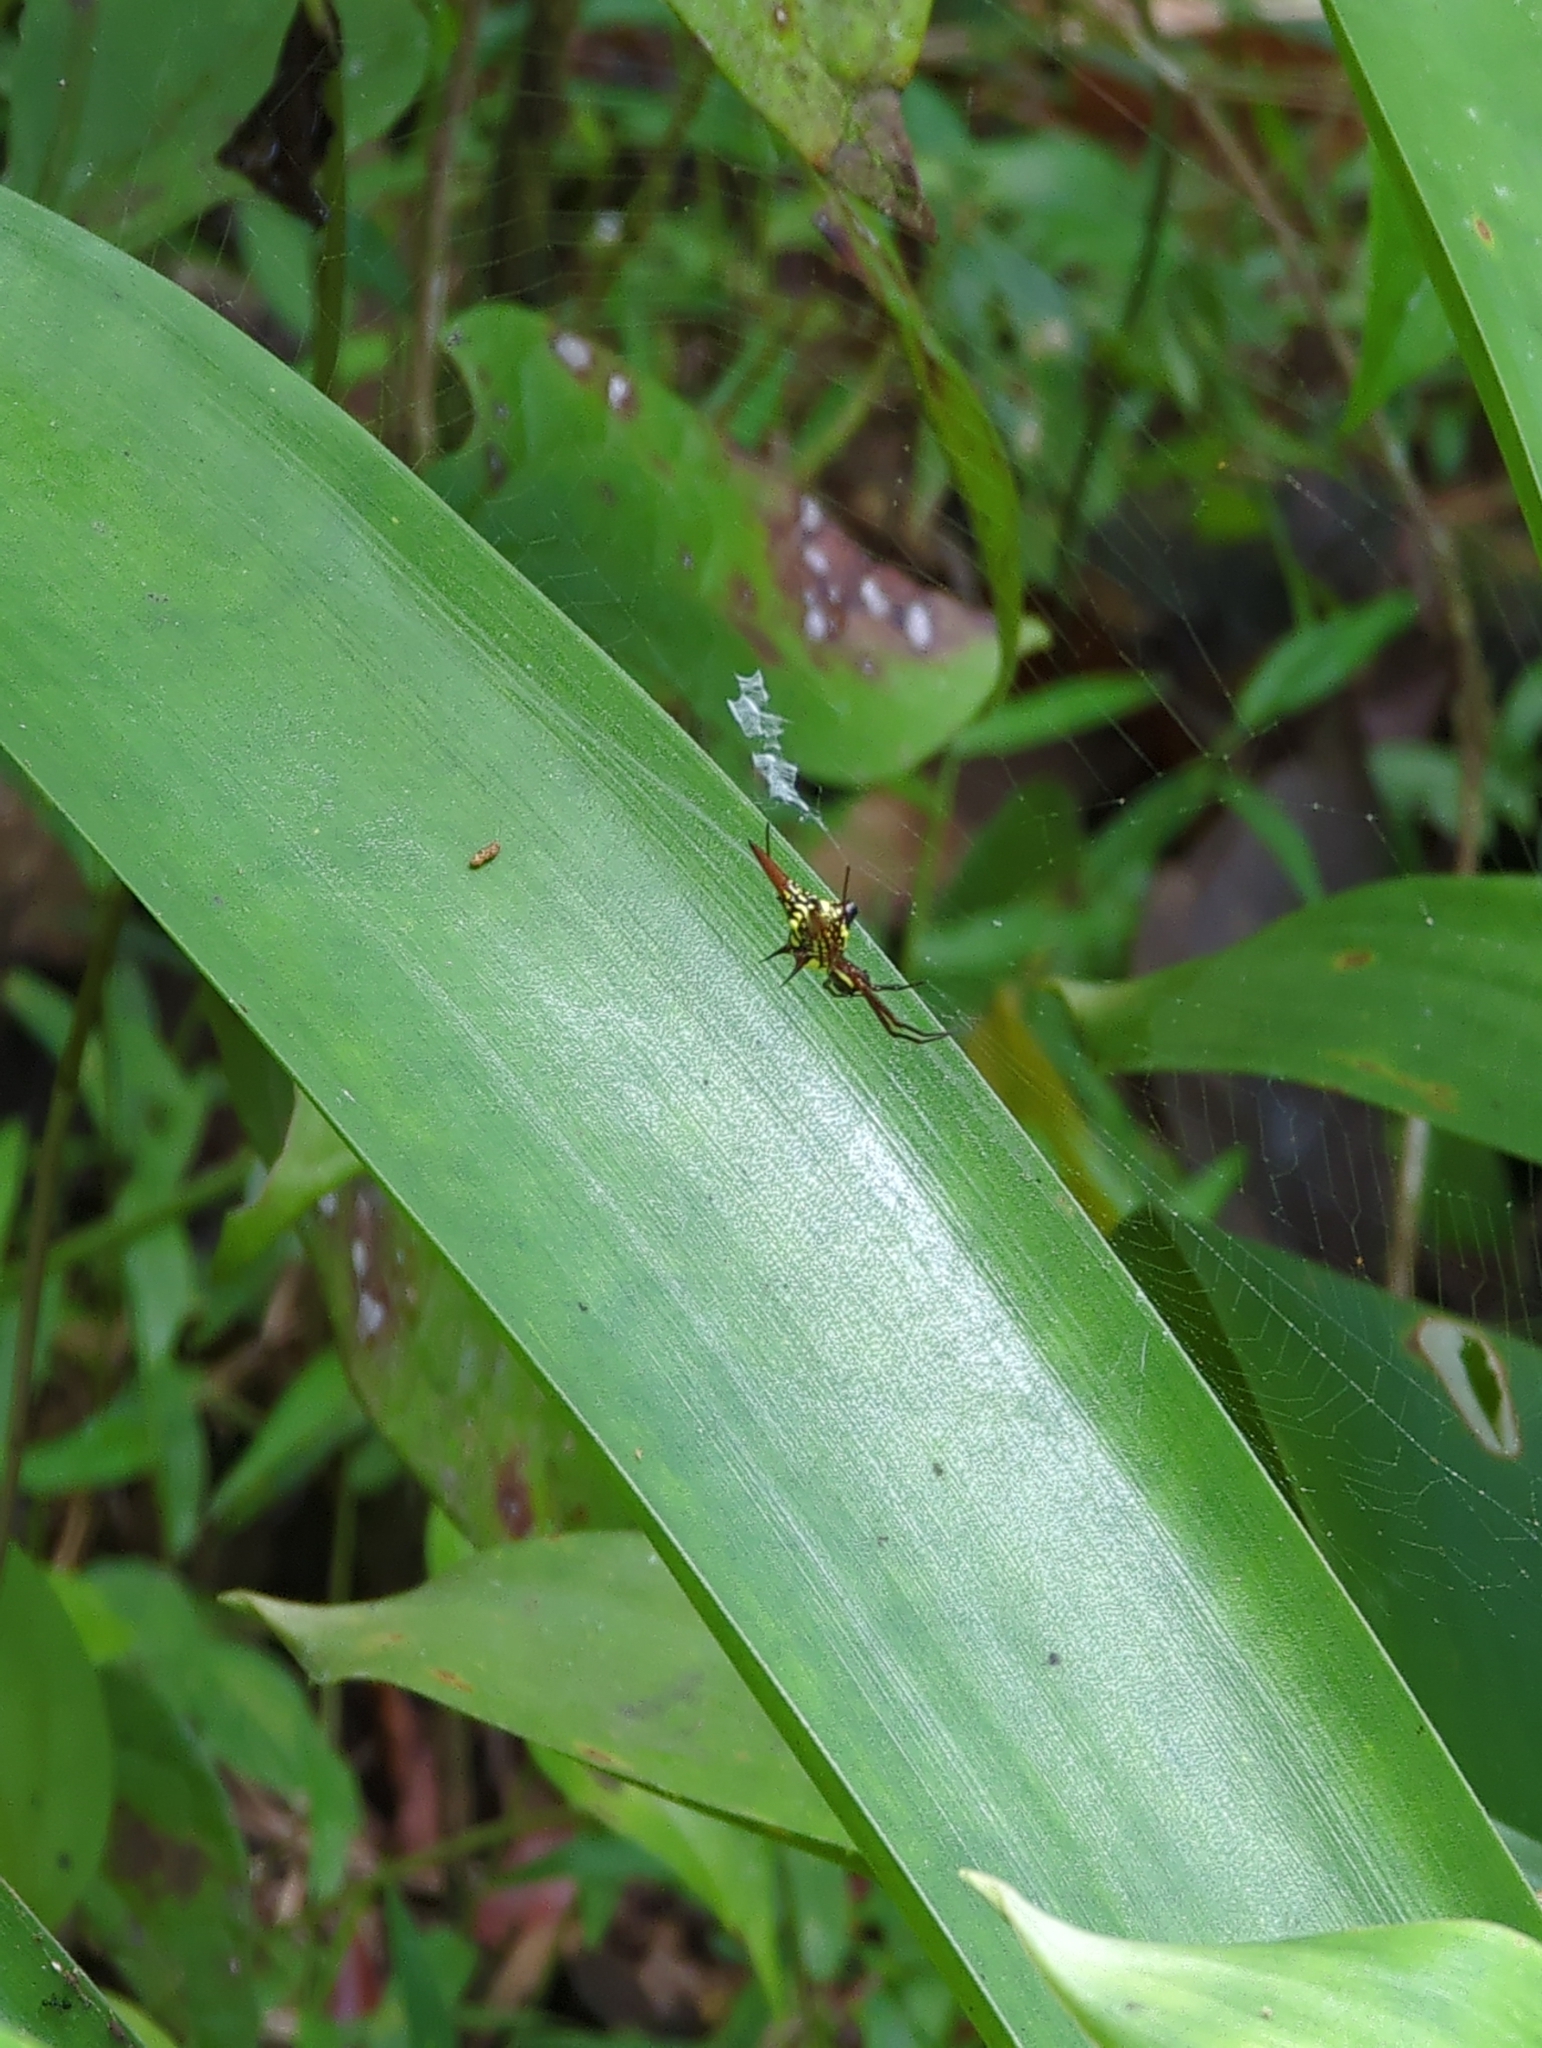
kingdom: Animalia
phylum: Arthropoda
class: Arachnida
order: Araneae
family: Araneidae
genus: Micrathena
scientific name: Micrathena sexspinosa
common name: Orb weavers
